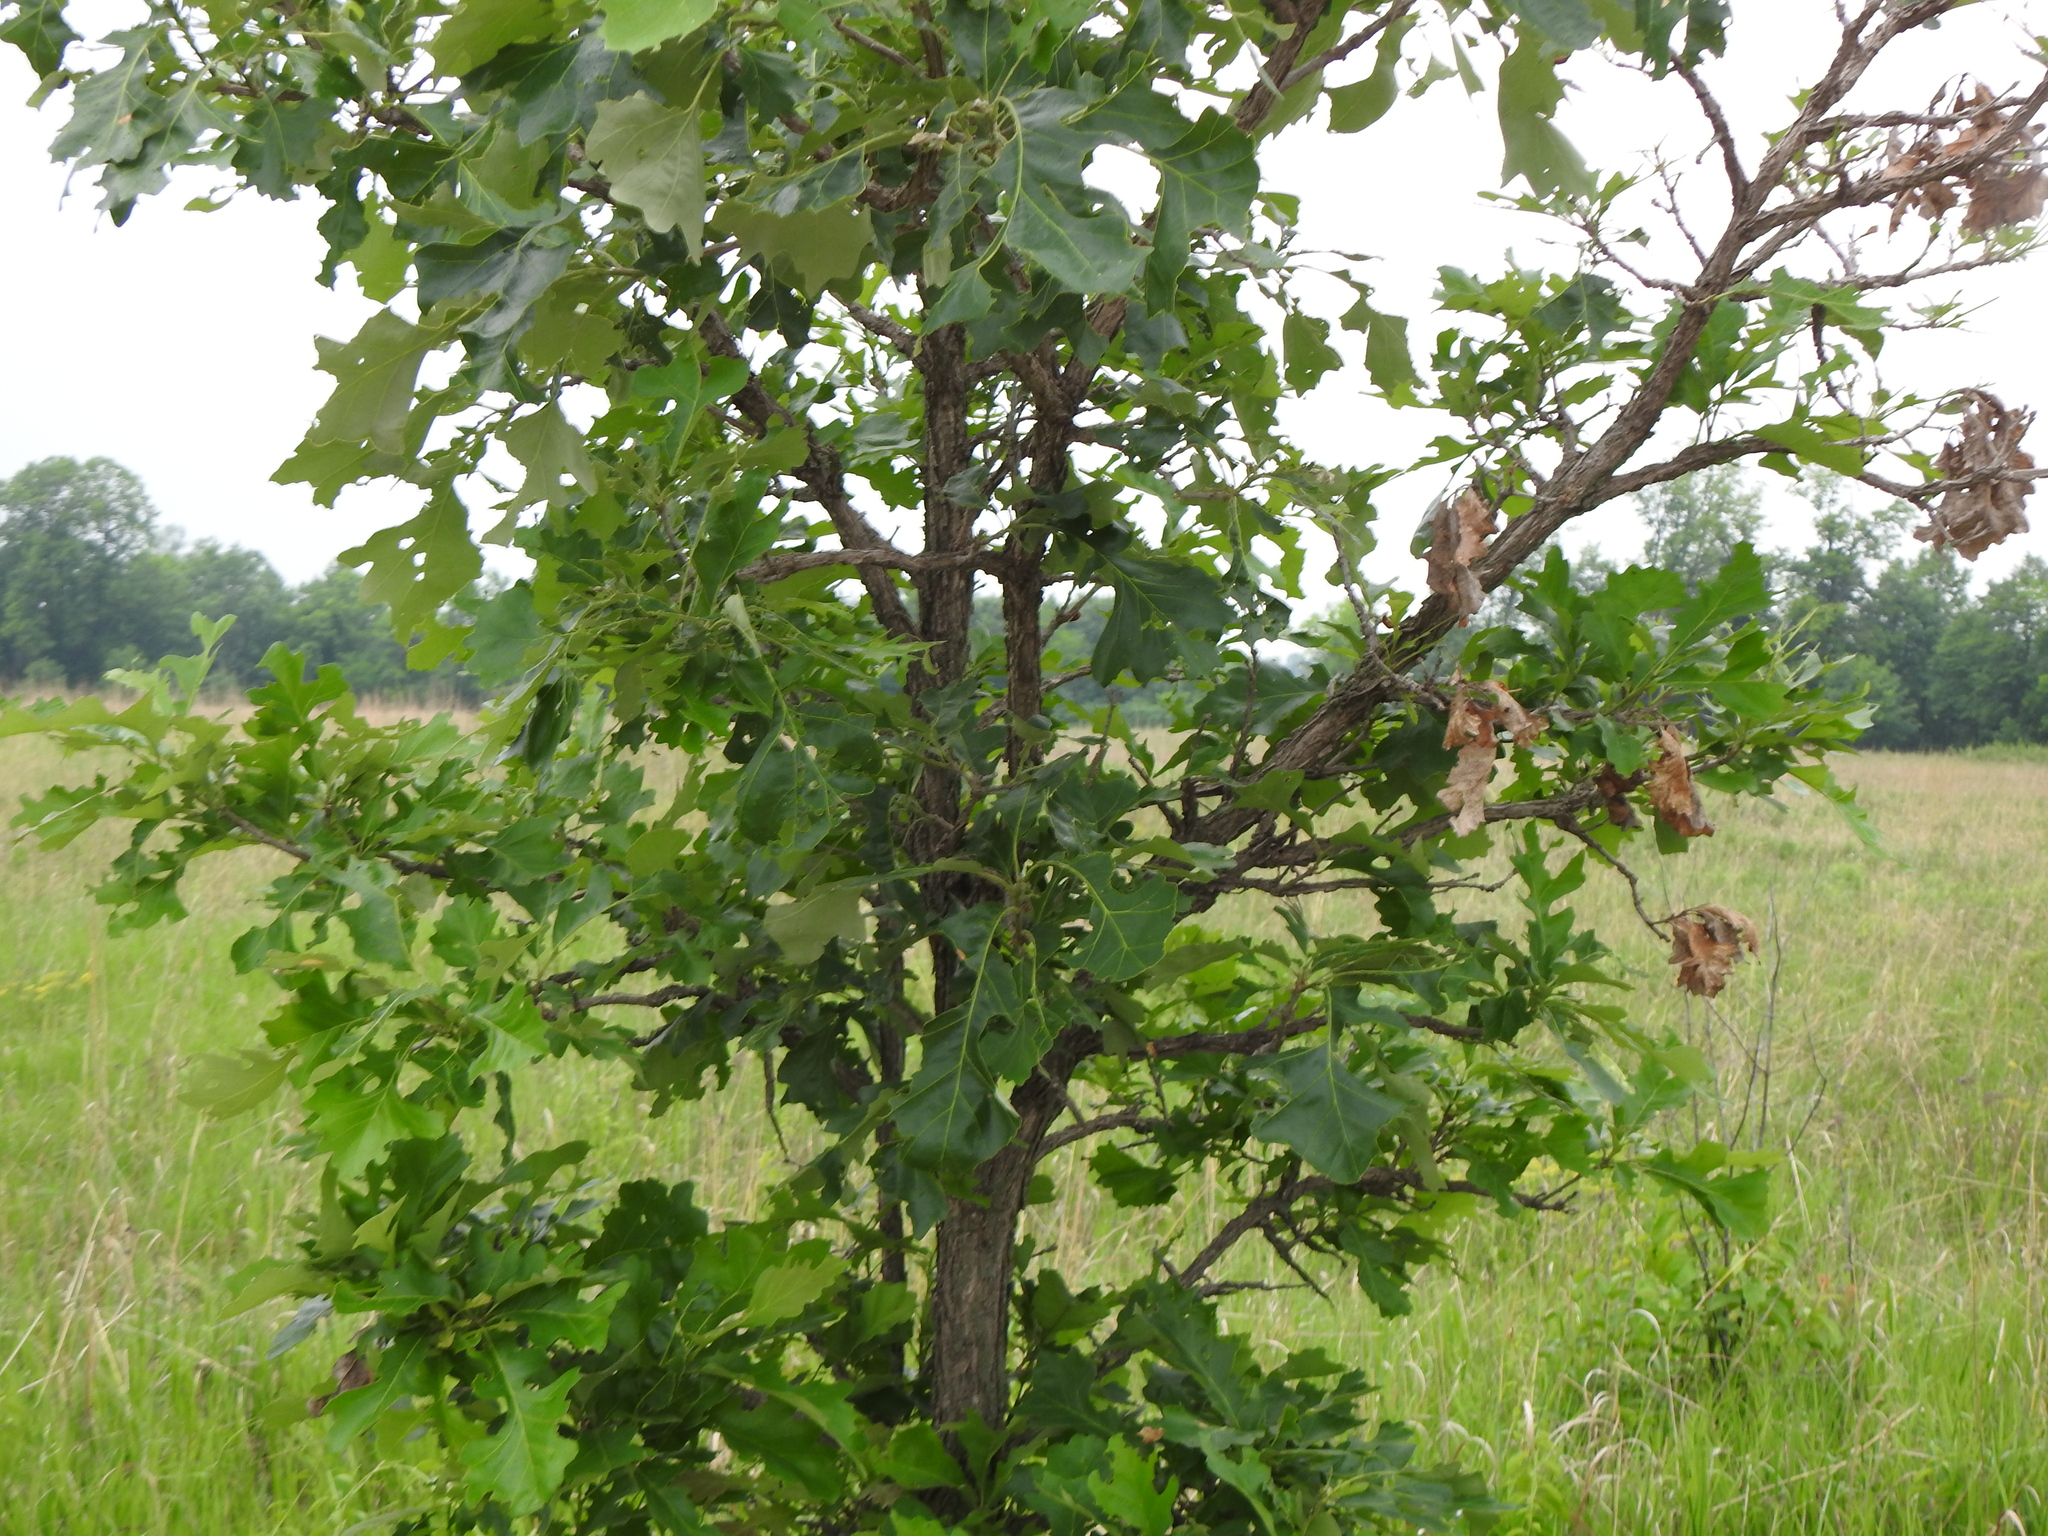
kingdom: Plantae
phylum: Tracheophyta
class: Magnoliopsida
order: Fagales
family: Fagaceae
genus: Quercus
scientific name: Quercus macrocarpa
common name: Bur oak
